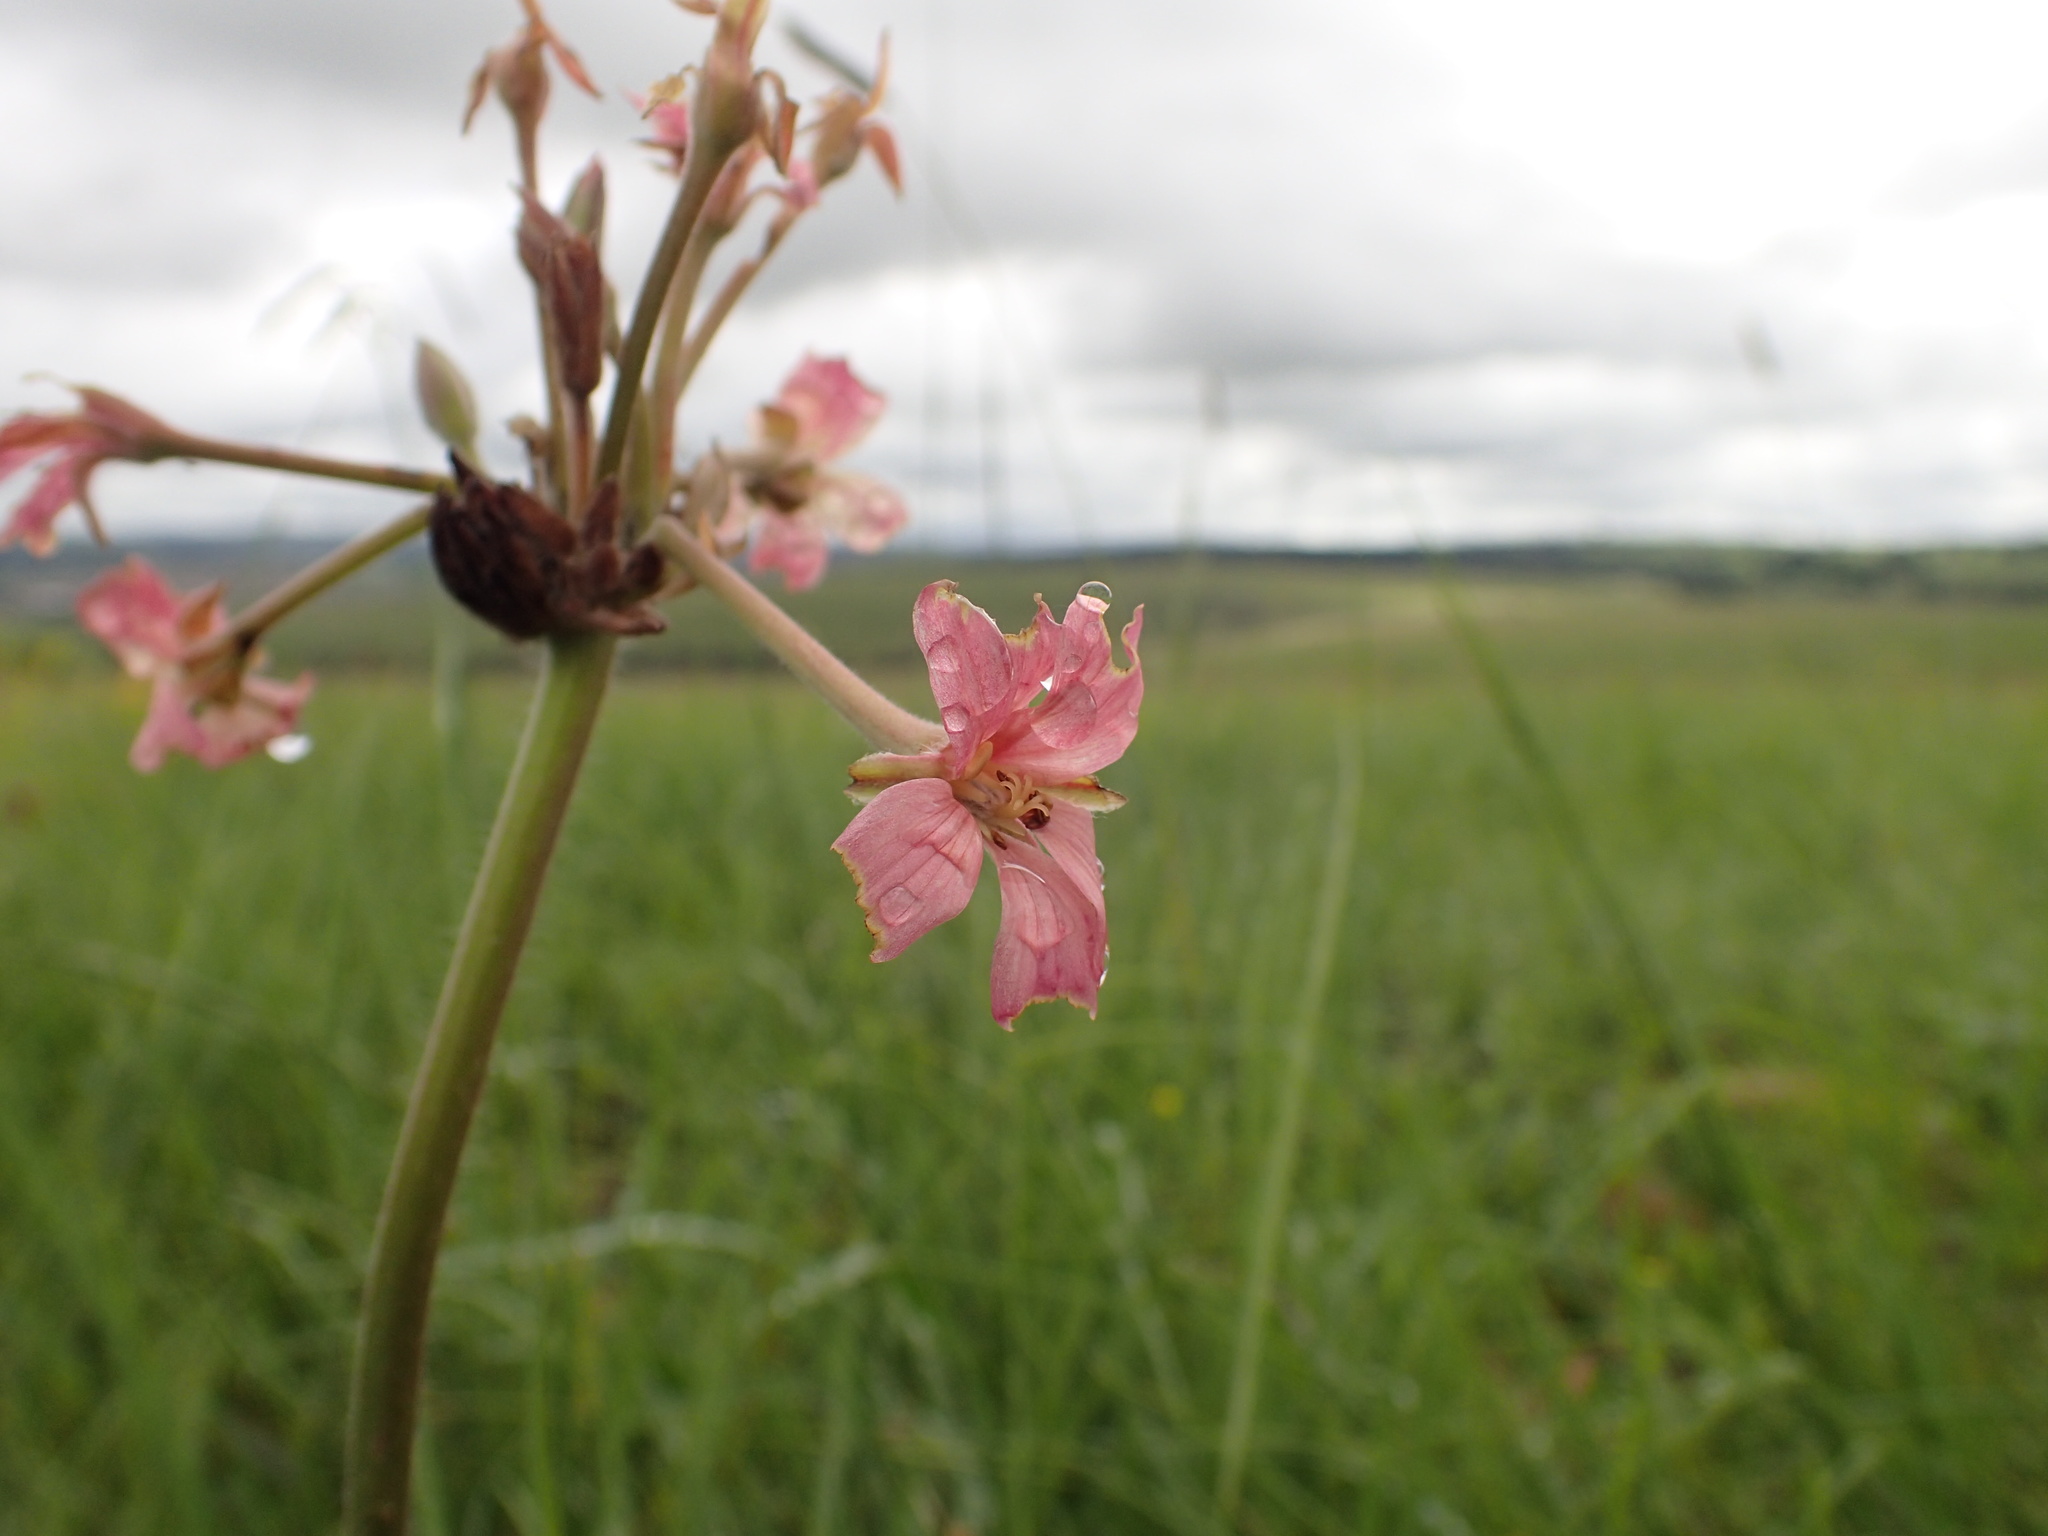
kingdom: Plantae
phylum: Tracheophyta
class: Magnoliopsida
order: Geraniales
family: Geraniaceae
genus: Pelargonium
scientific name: Pelargonium luridum
